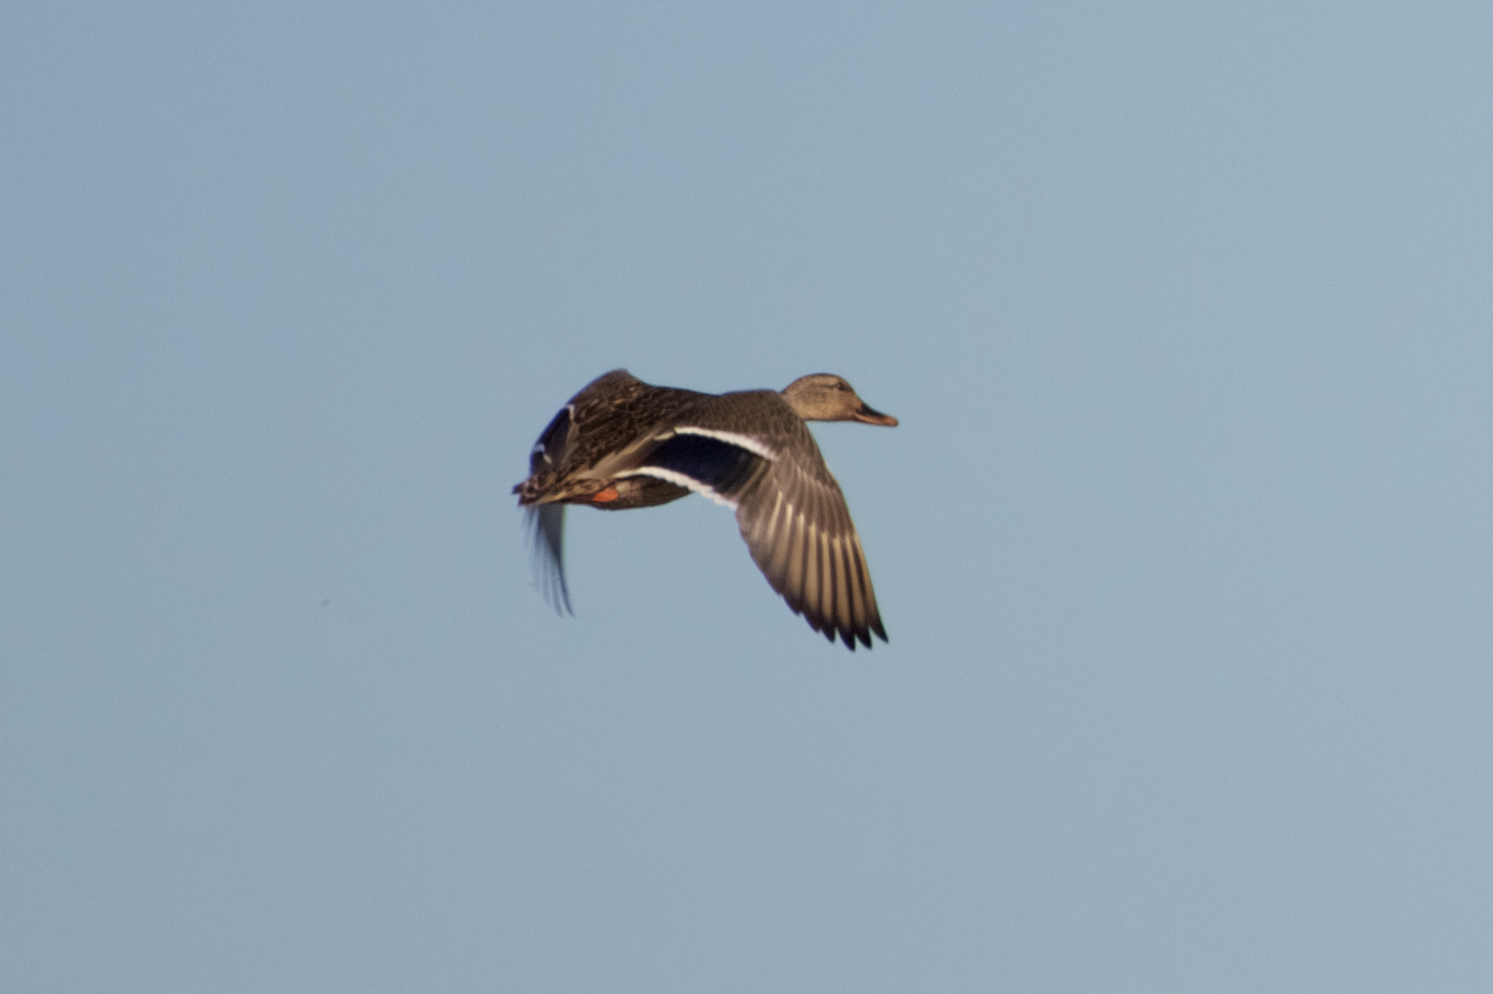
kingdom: Animalia
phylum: Chordata
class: Aves
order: Anseriformes
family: Anatidae
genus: Anas
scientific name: Anas platyrhynchos
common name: Mallard
